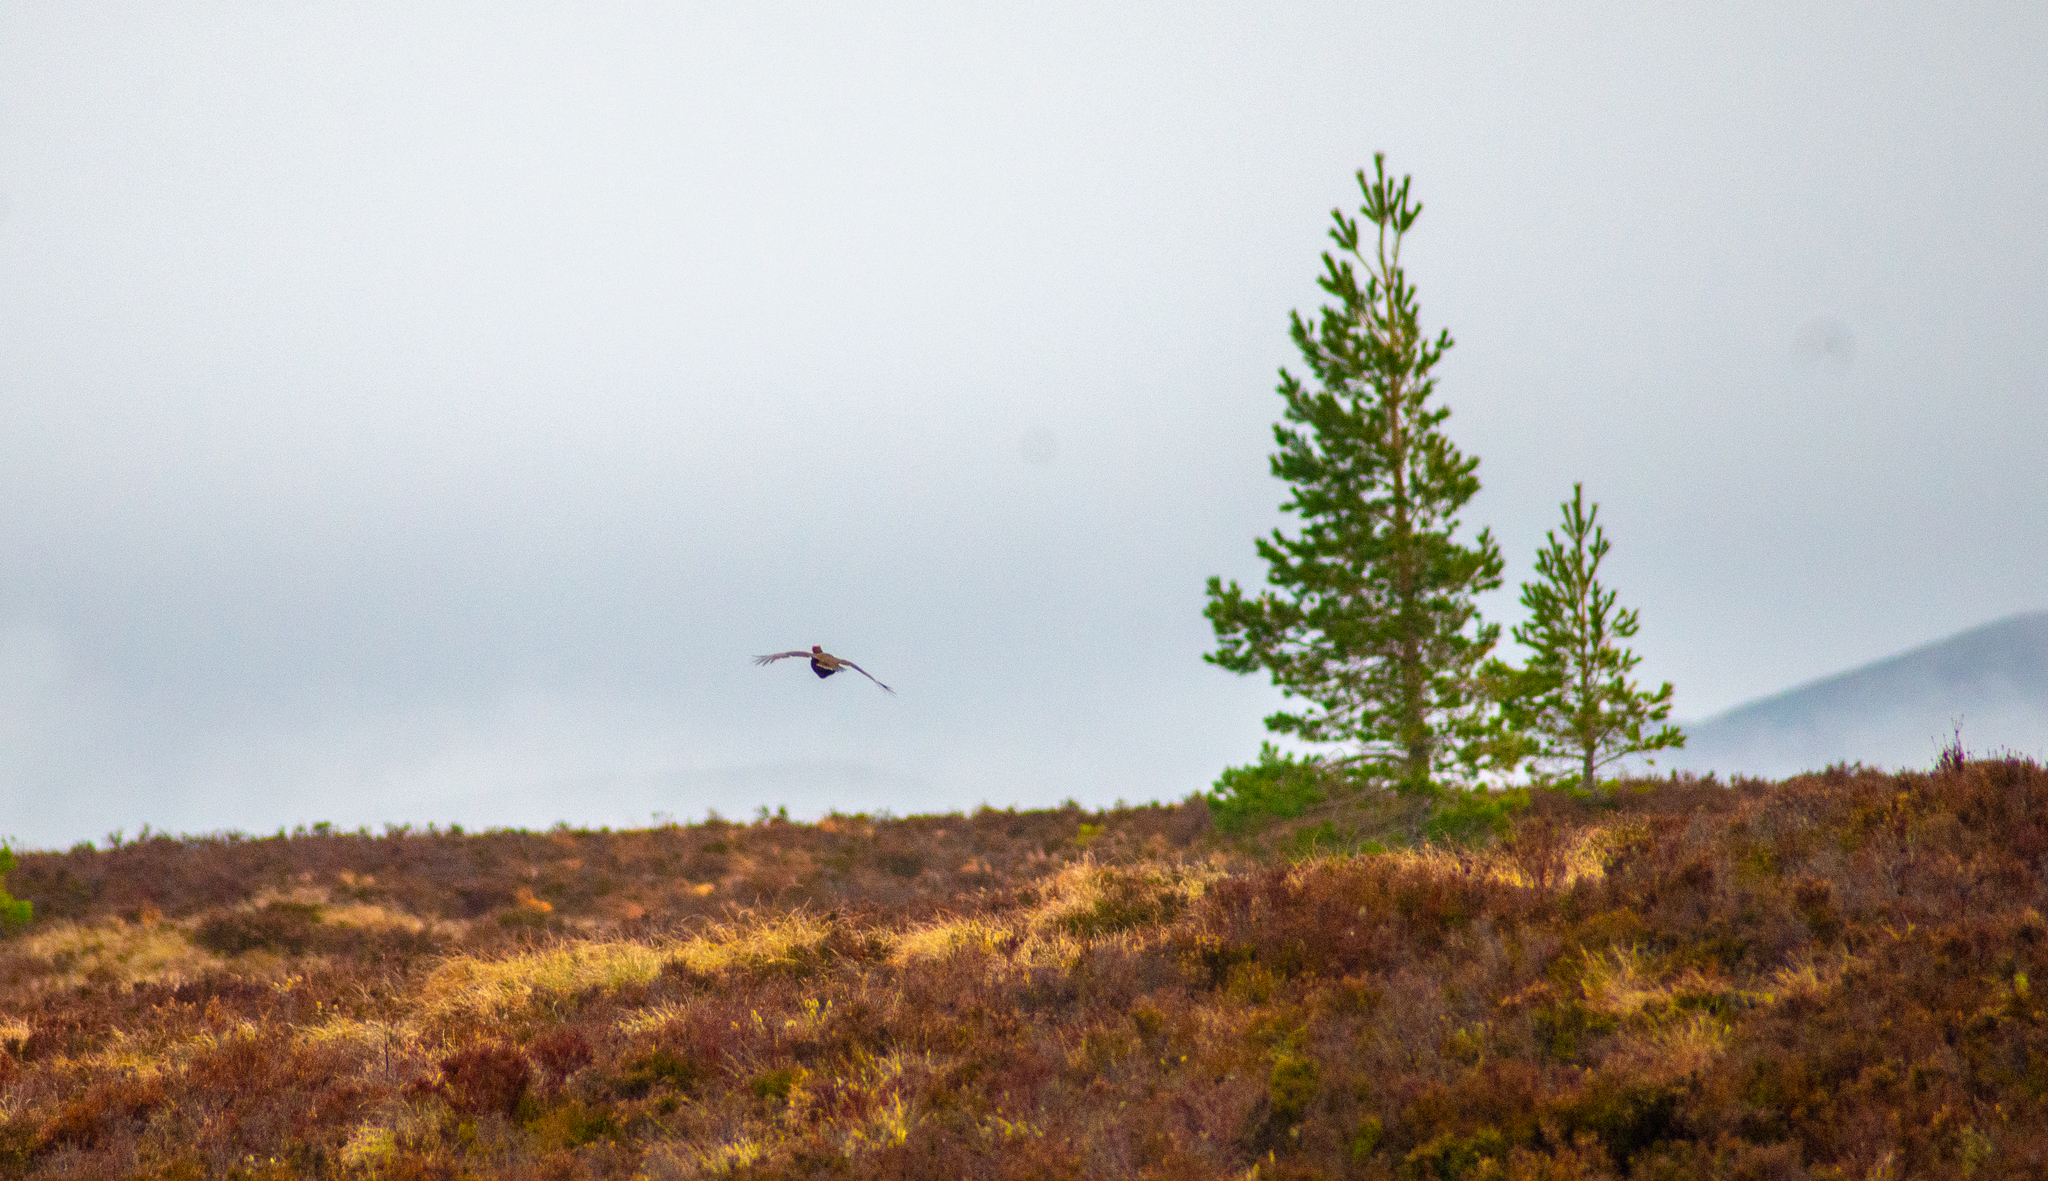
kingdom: Animalia
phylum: Chordata
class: Aves
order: Galliformes
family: Phasianidae
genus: Lyrurus
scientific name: Lyrurus tetrix
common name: Black grouse
